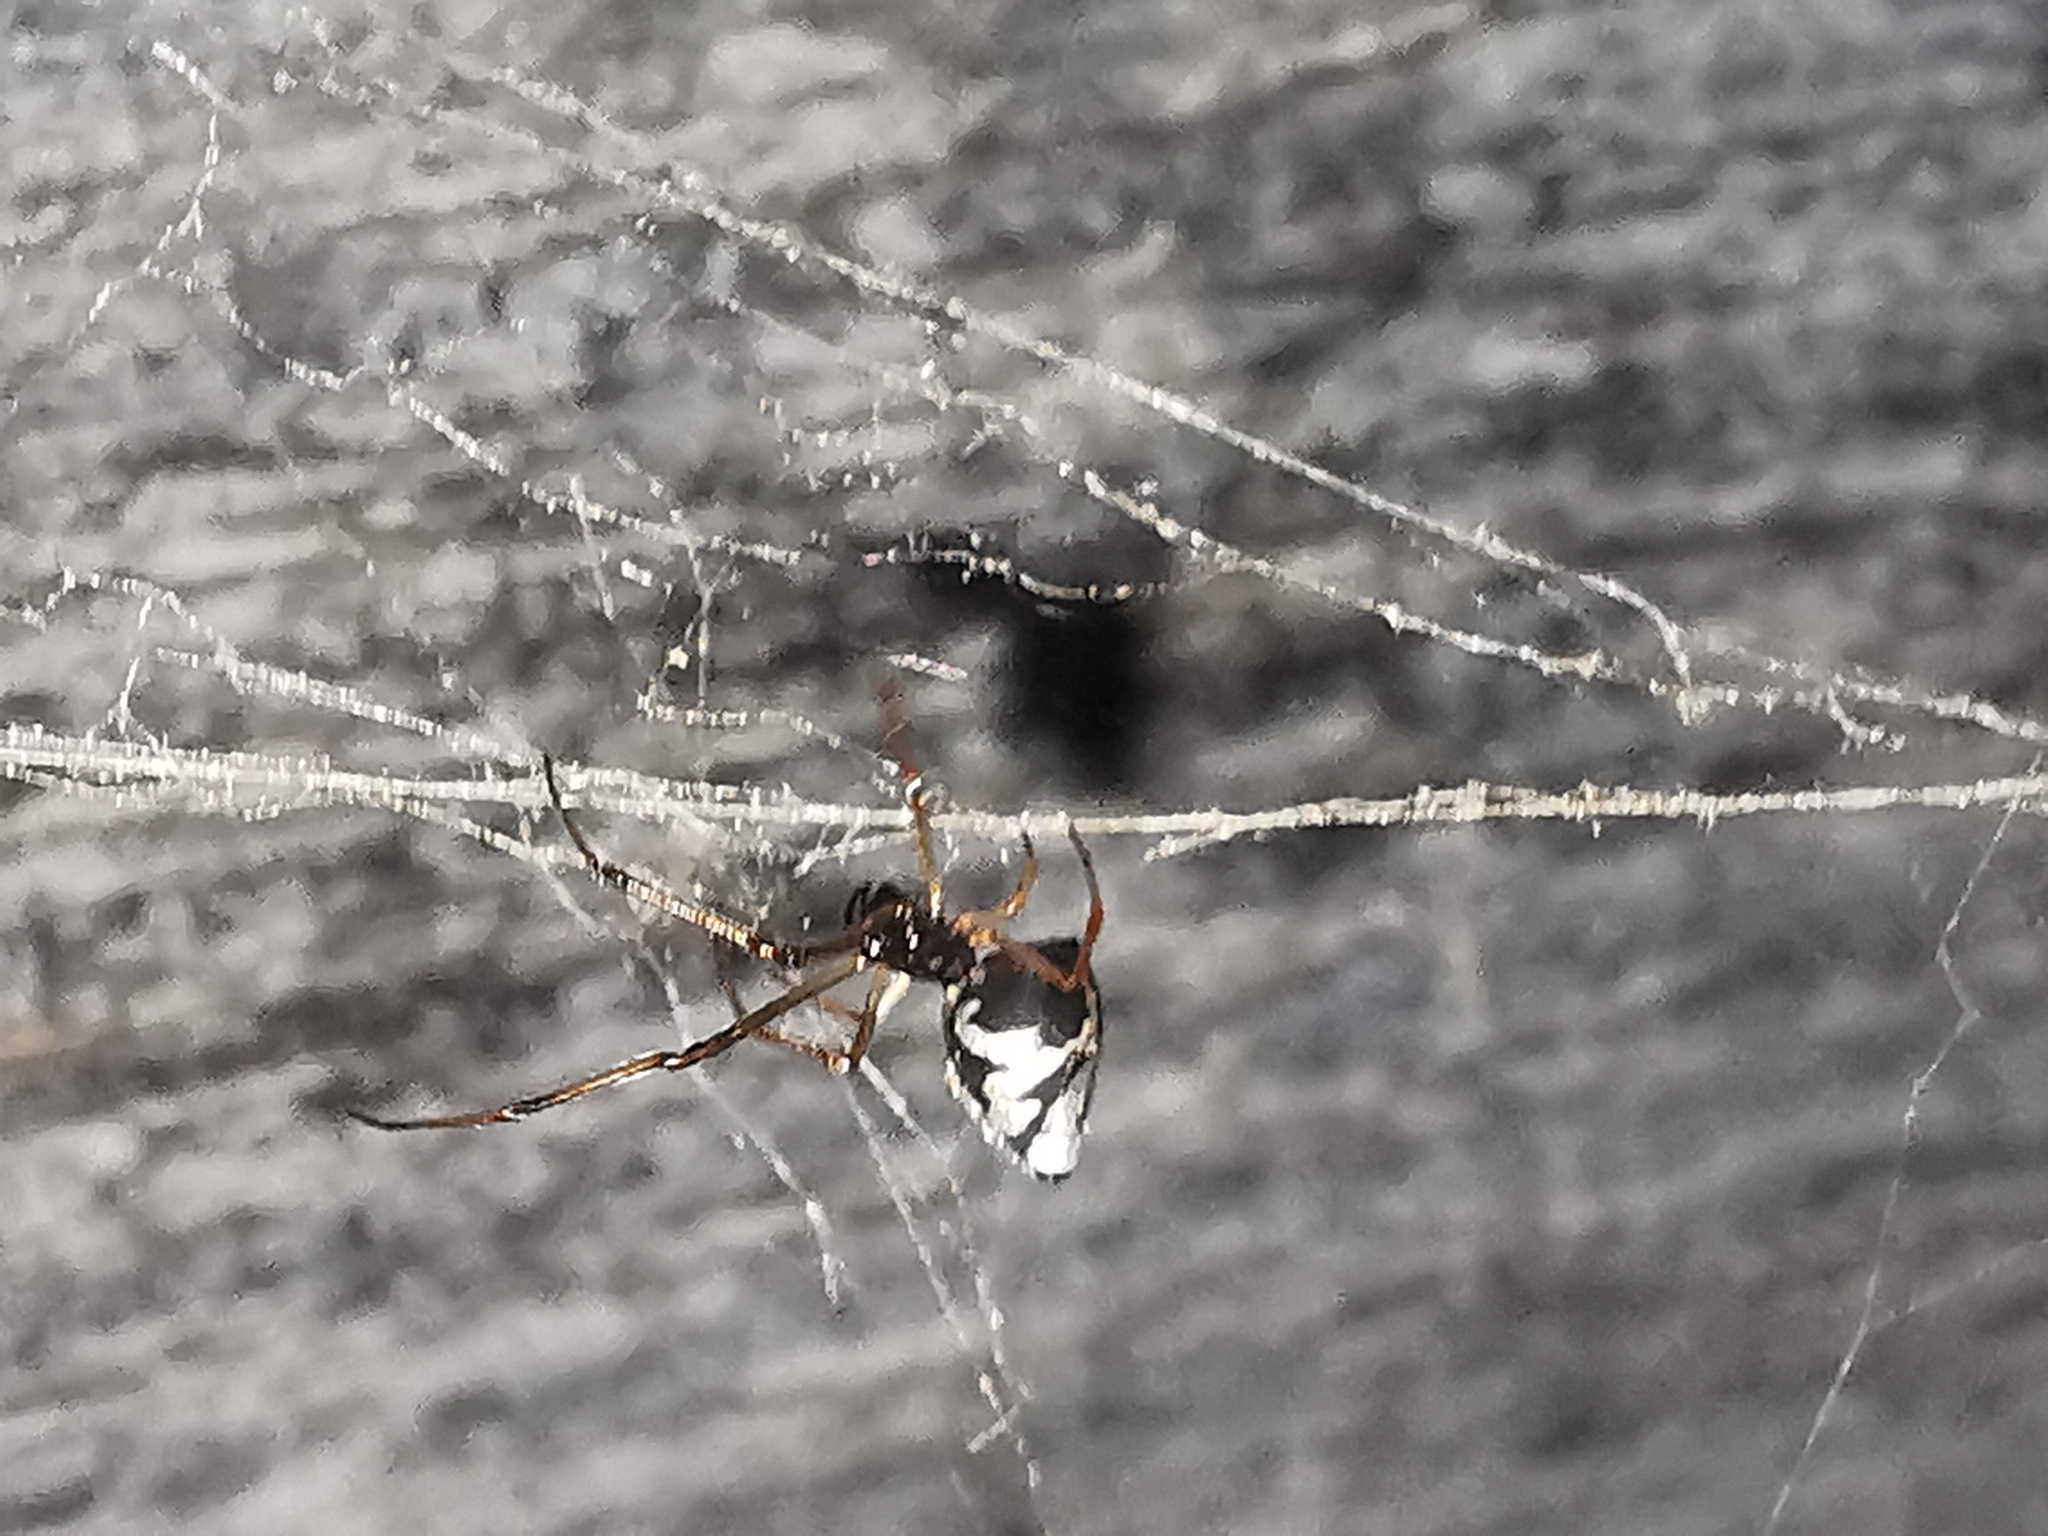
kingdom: Animalia
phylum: Arthropoda
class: Arachnida
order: Araneae
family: Theridiidae
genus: Argyrodes
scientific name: Argyrodes argyrodes
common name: Dewdrop spider
